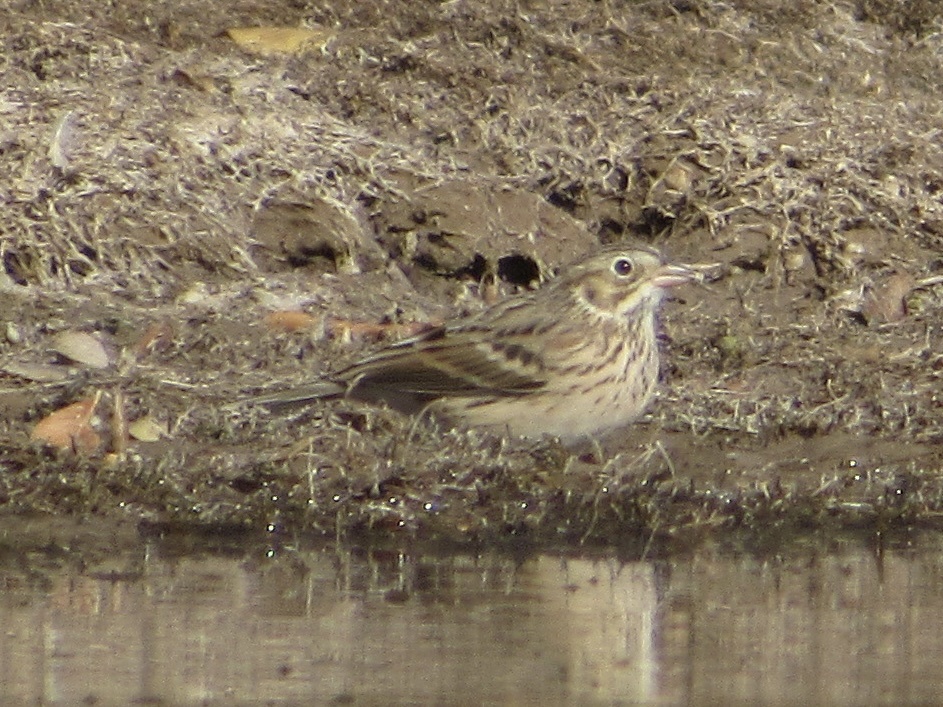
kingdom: Animalia
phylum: Chordata
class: Aves
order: Passeriformes
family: Passerellidae
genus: Pooecetes
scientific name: Pooecetes gramineus
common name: Vesper sparrow
